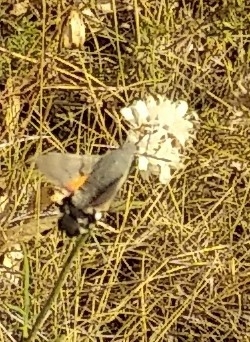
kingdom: Animalia
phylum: Arthropoda
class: Insecta
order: Lepidoptera
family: Sphingidae
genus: Macroglossum
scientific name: Macroglossum stellatarum
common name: Humming-bird hawk-moth
